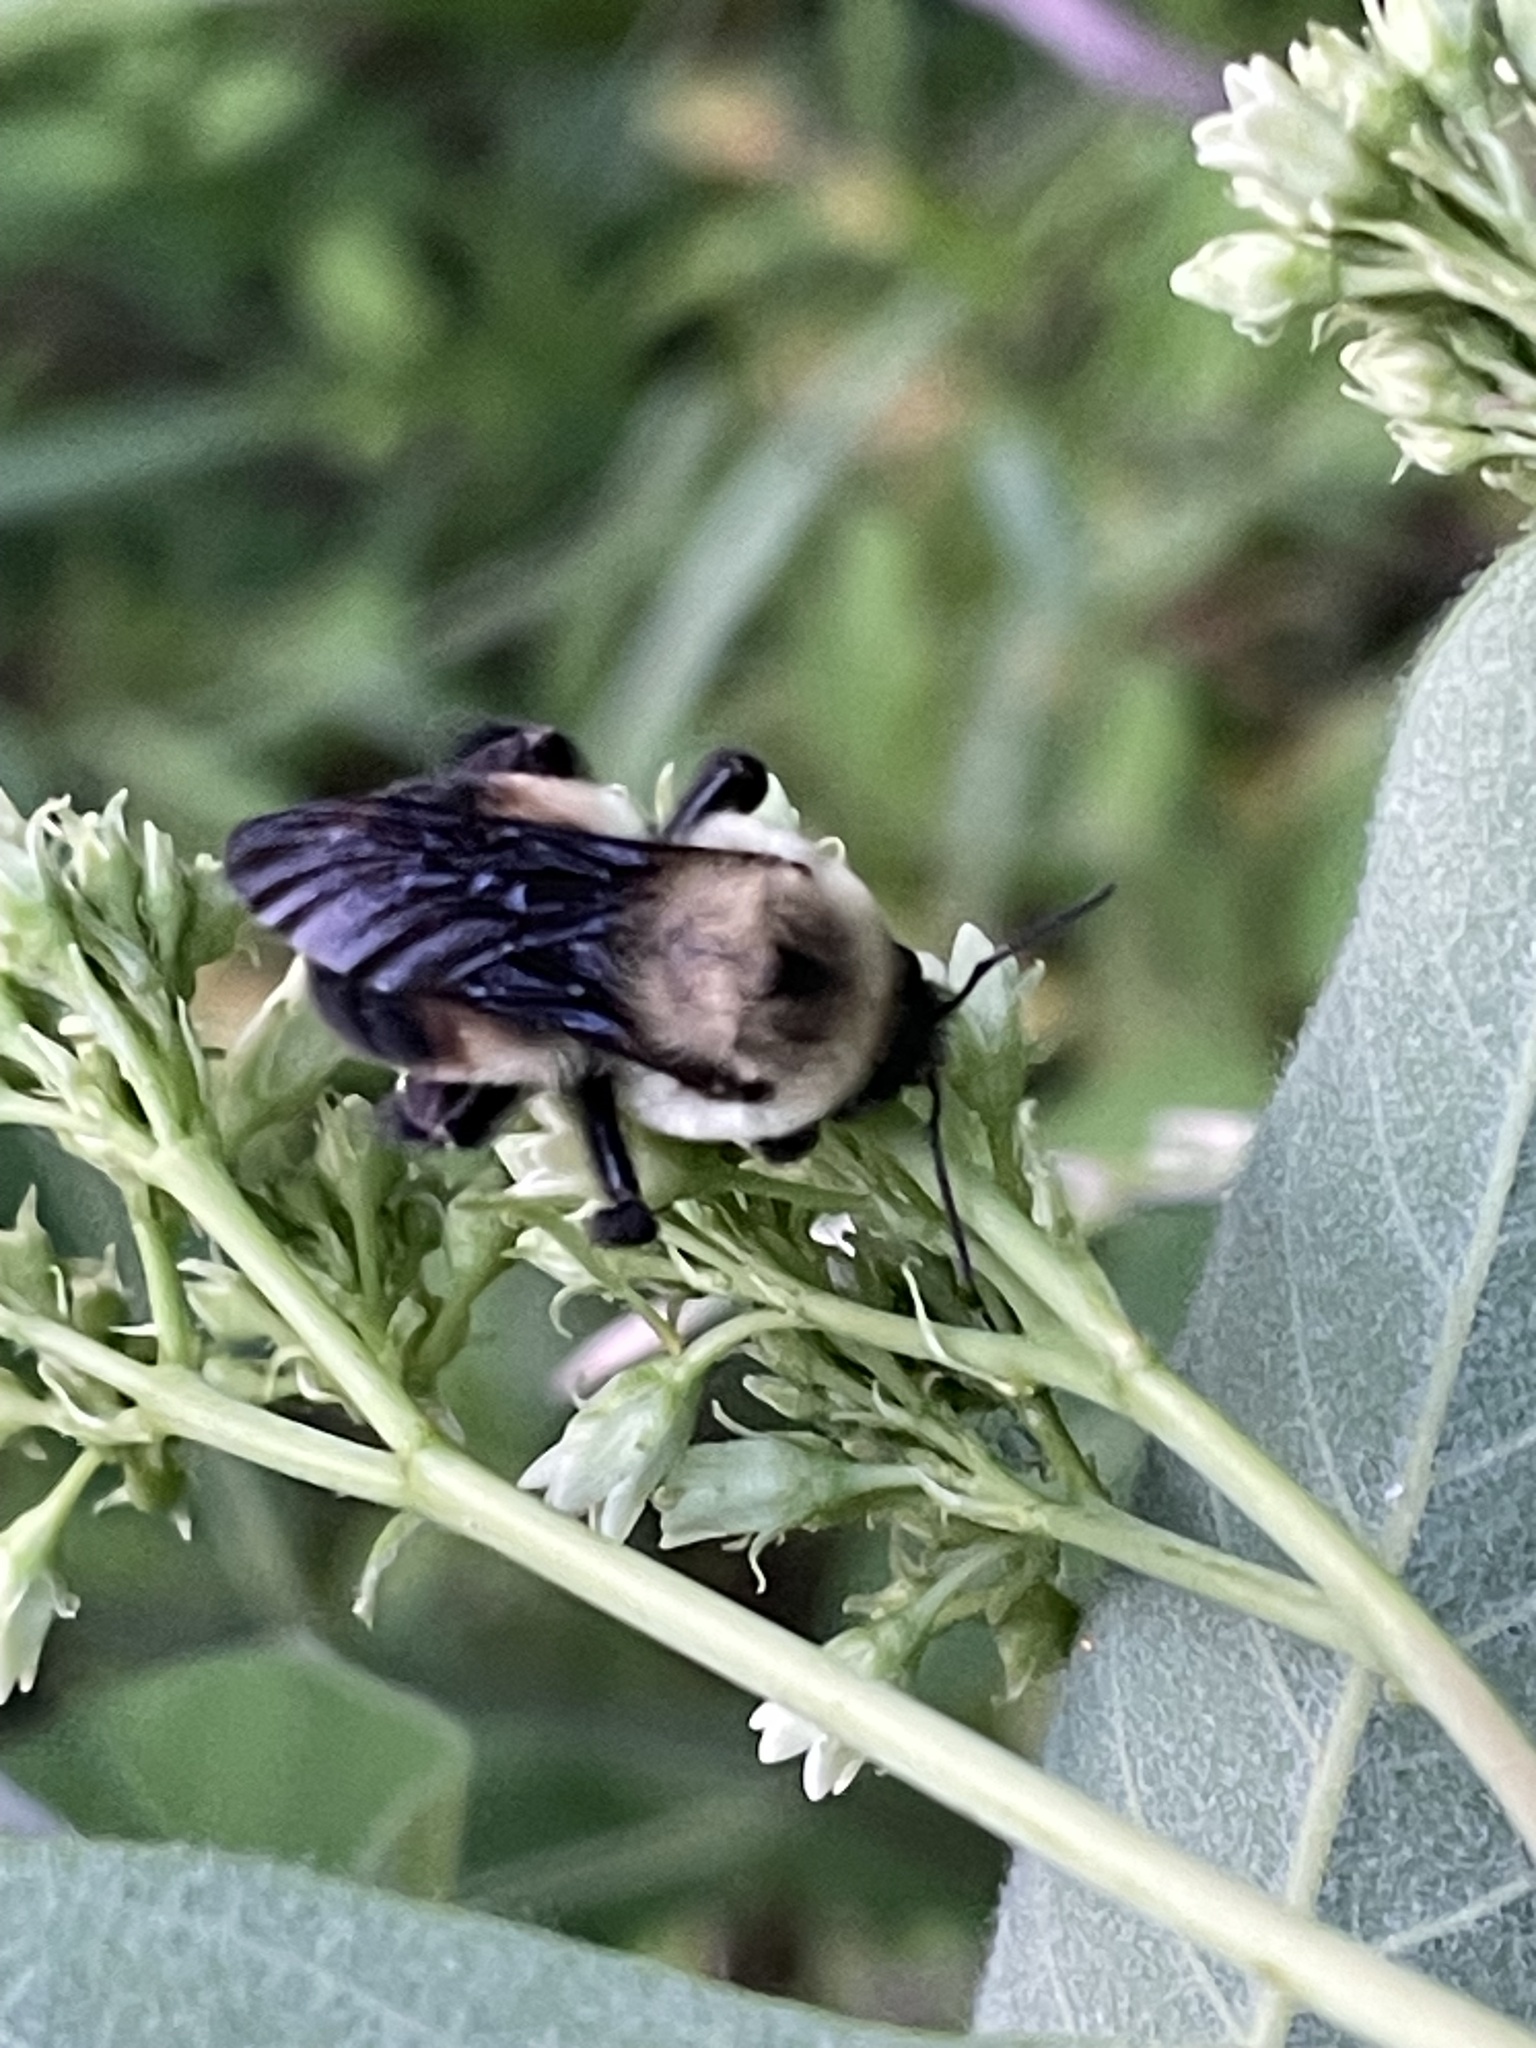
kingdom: Animalia
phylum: Arthropoda
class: Insecta
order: Hymenoptera
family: Apidae
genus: Bombus
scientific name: Bombus griseocollis
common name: Brown-belted bumble bee
